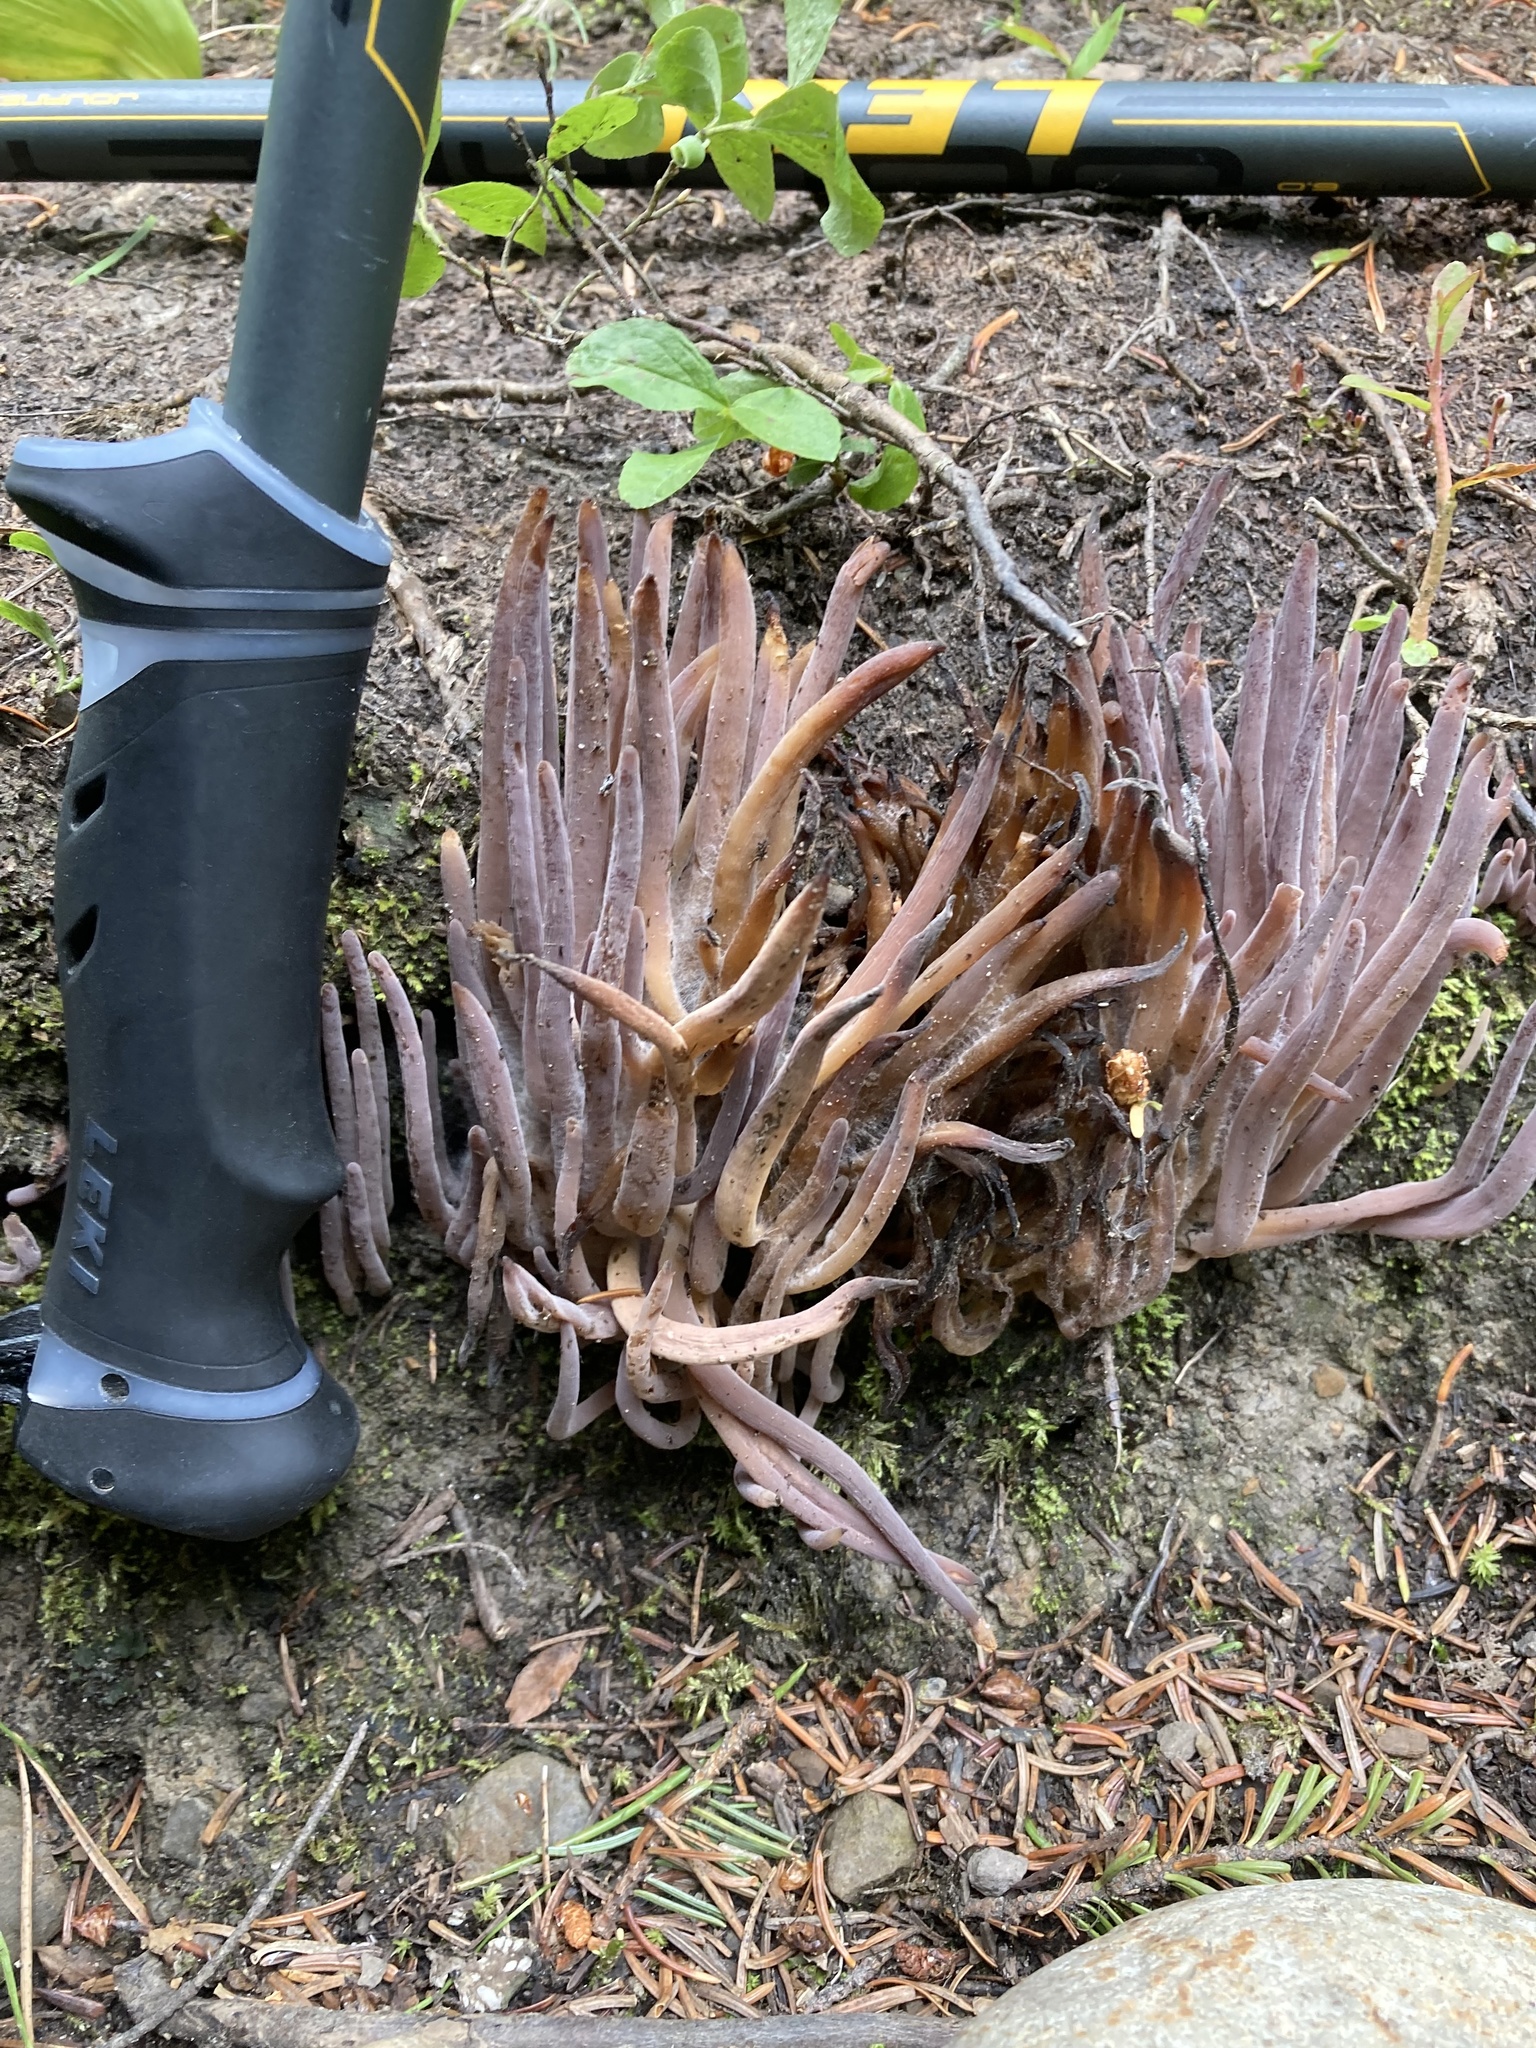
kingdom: Fungi
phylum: Basidiomycota
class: Agaricomycetes
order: Hymenochaetales
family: Rickenellaceae
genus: Alloclavaria
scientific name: Alloclavaria purpurea
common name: Purple spindles
